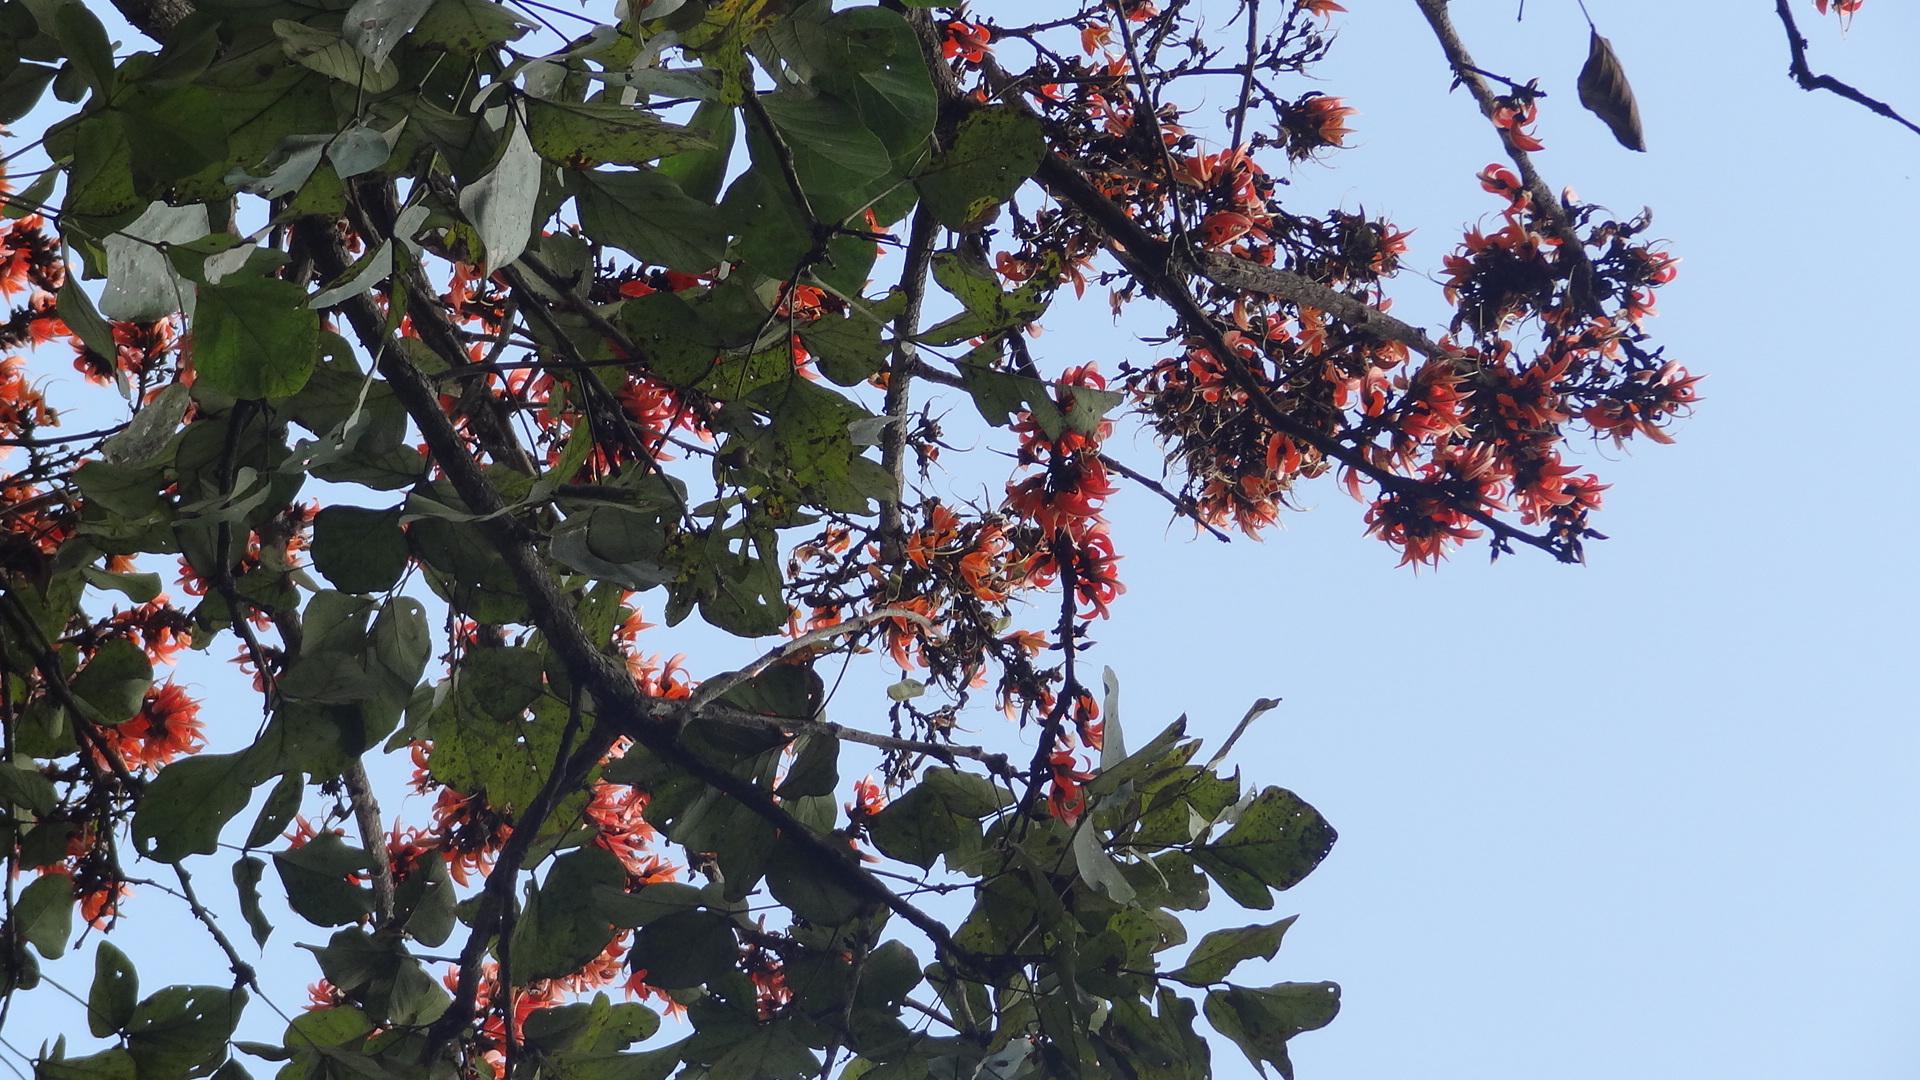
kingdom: Plantae
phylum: Tracheophyta
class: Magnoliopsida
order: Fabales
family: Fabaceae
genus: Butea
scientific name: Butea monosperma
